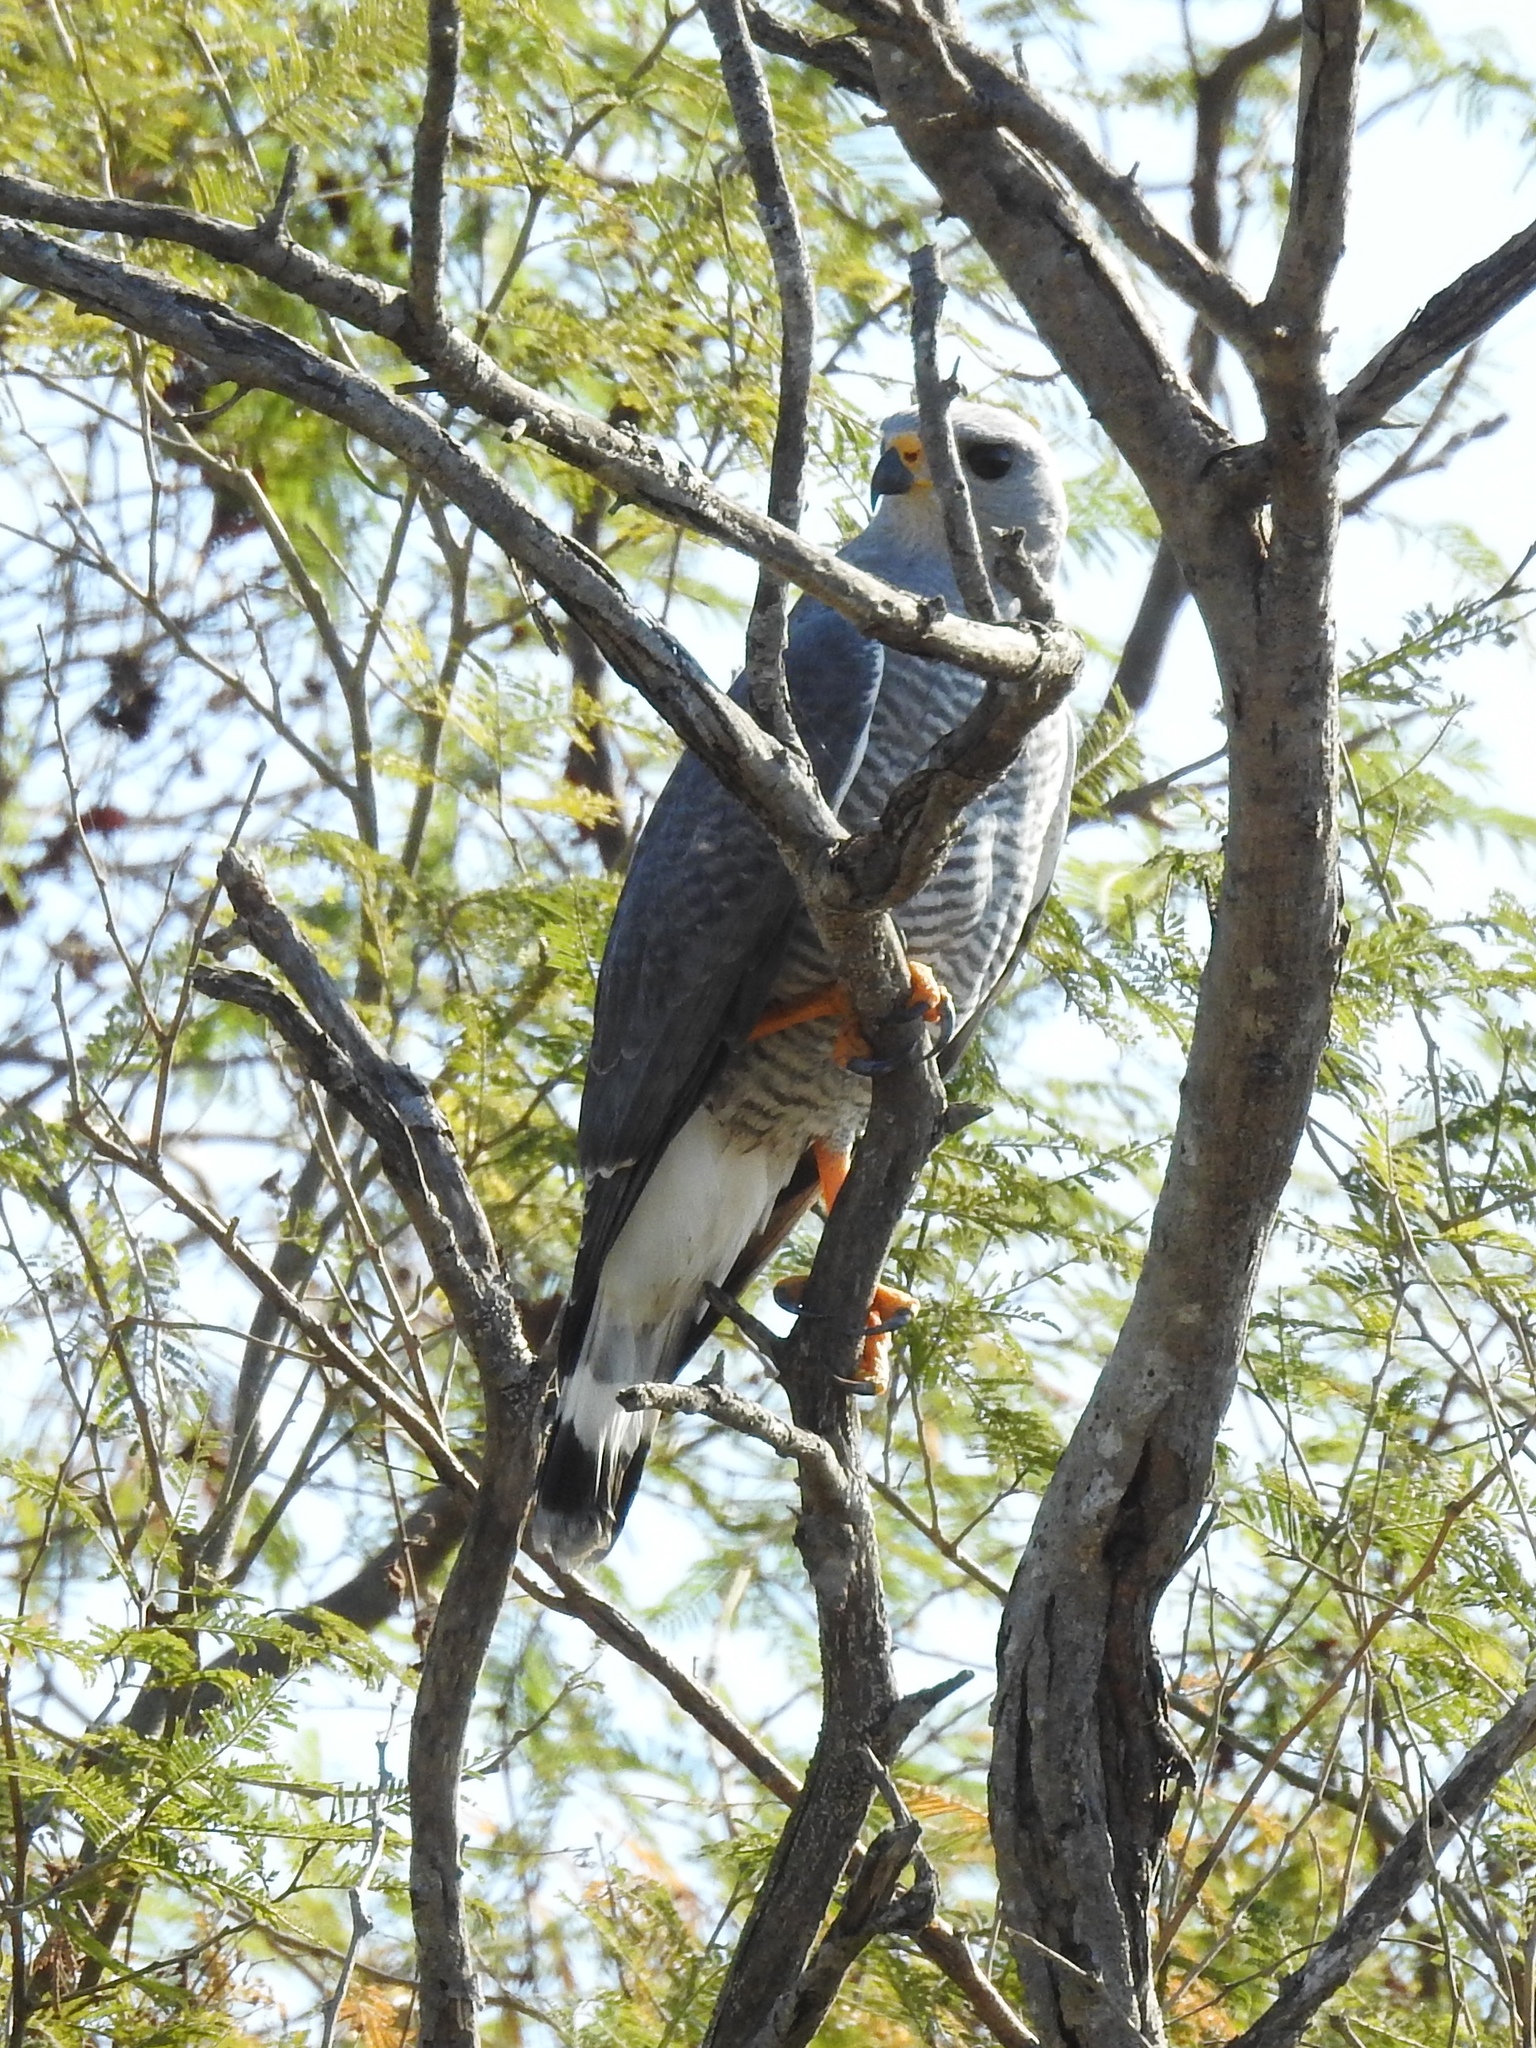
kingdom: Animalia
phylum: Chordata
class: Aves
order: Accipitriformes
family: Accipitridae
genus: Buteo
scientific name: Buteo nitidus
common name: Grey-lined hawk
